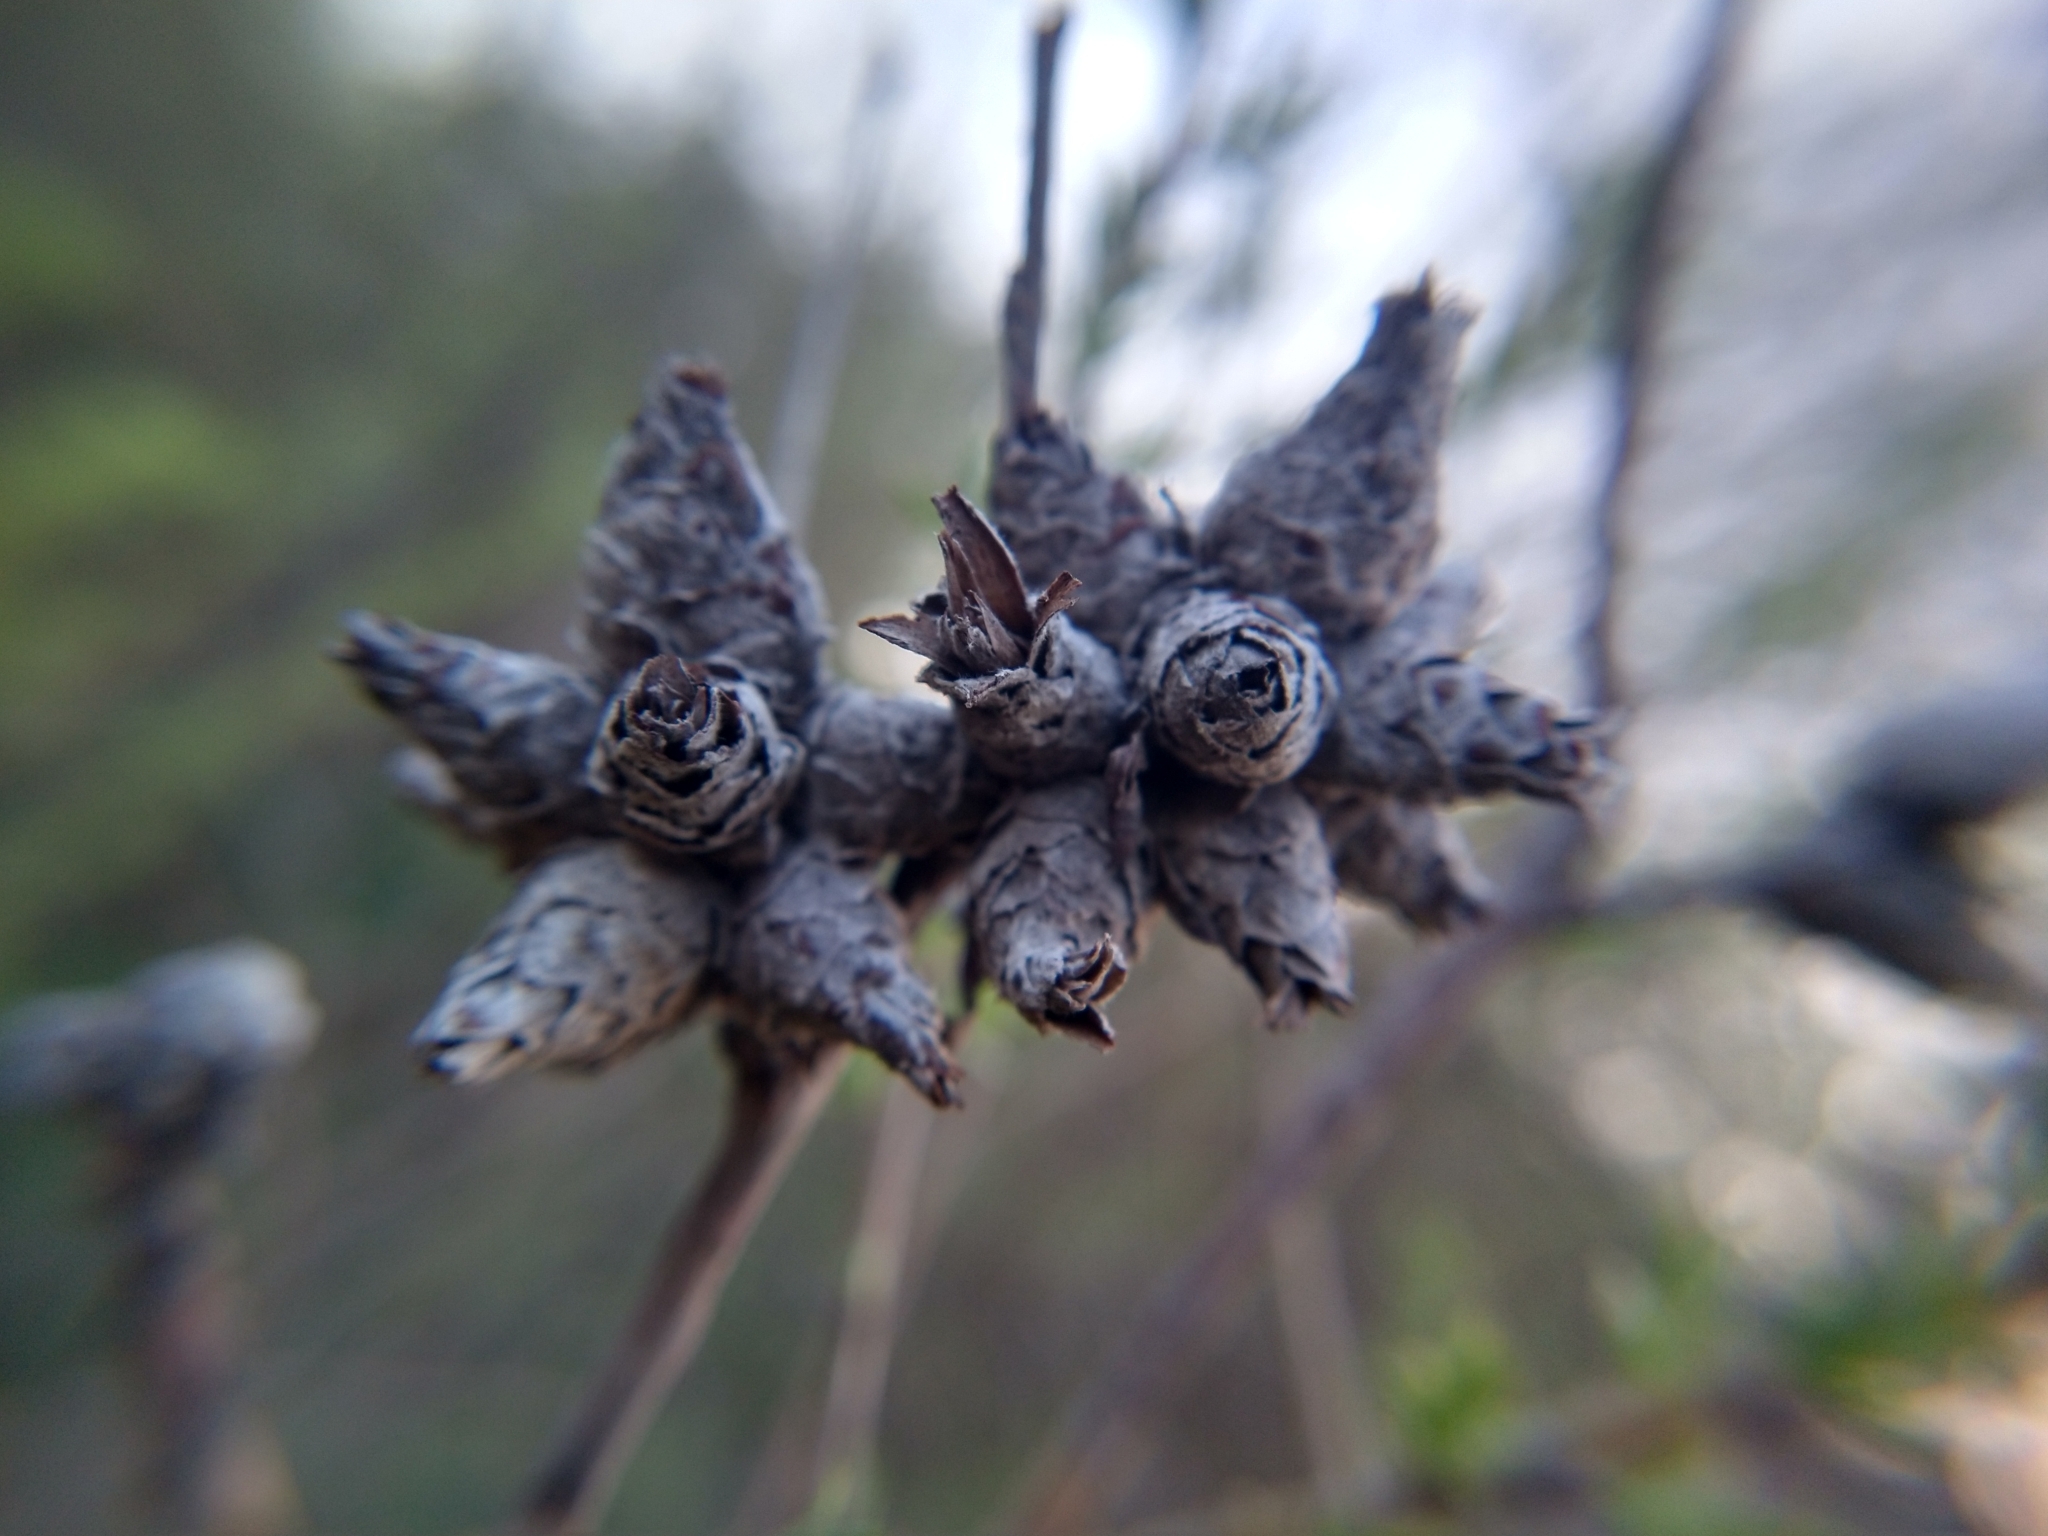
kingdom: Animalia
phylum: Arthropoda
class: Insecta
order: Diptera
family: Cecidomyiidae
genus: Rabdophaga
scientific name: Rabdophaga strobiloides
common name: Willow pinecone gall midge
